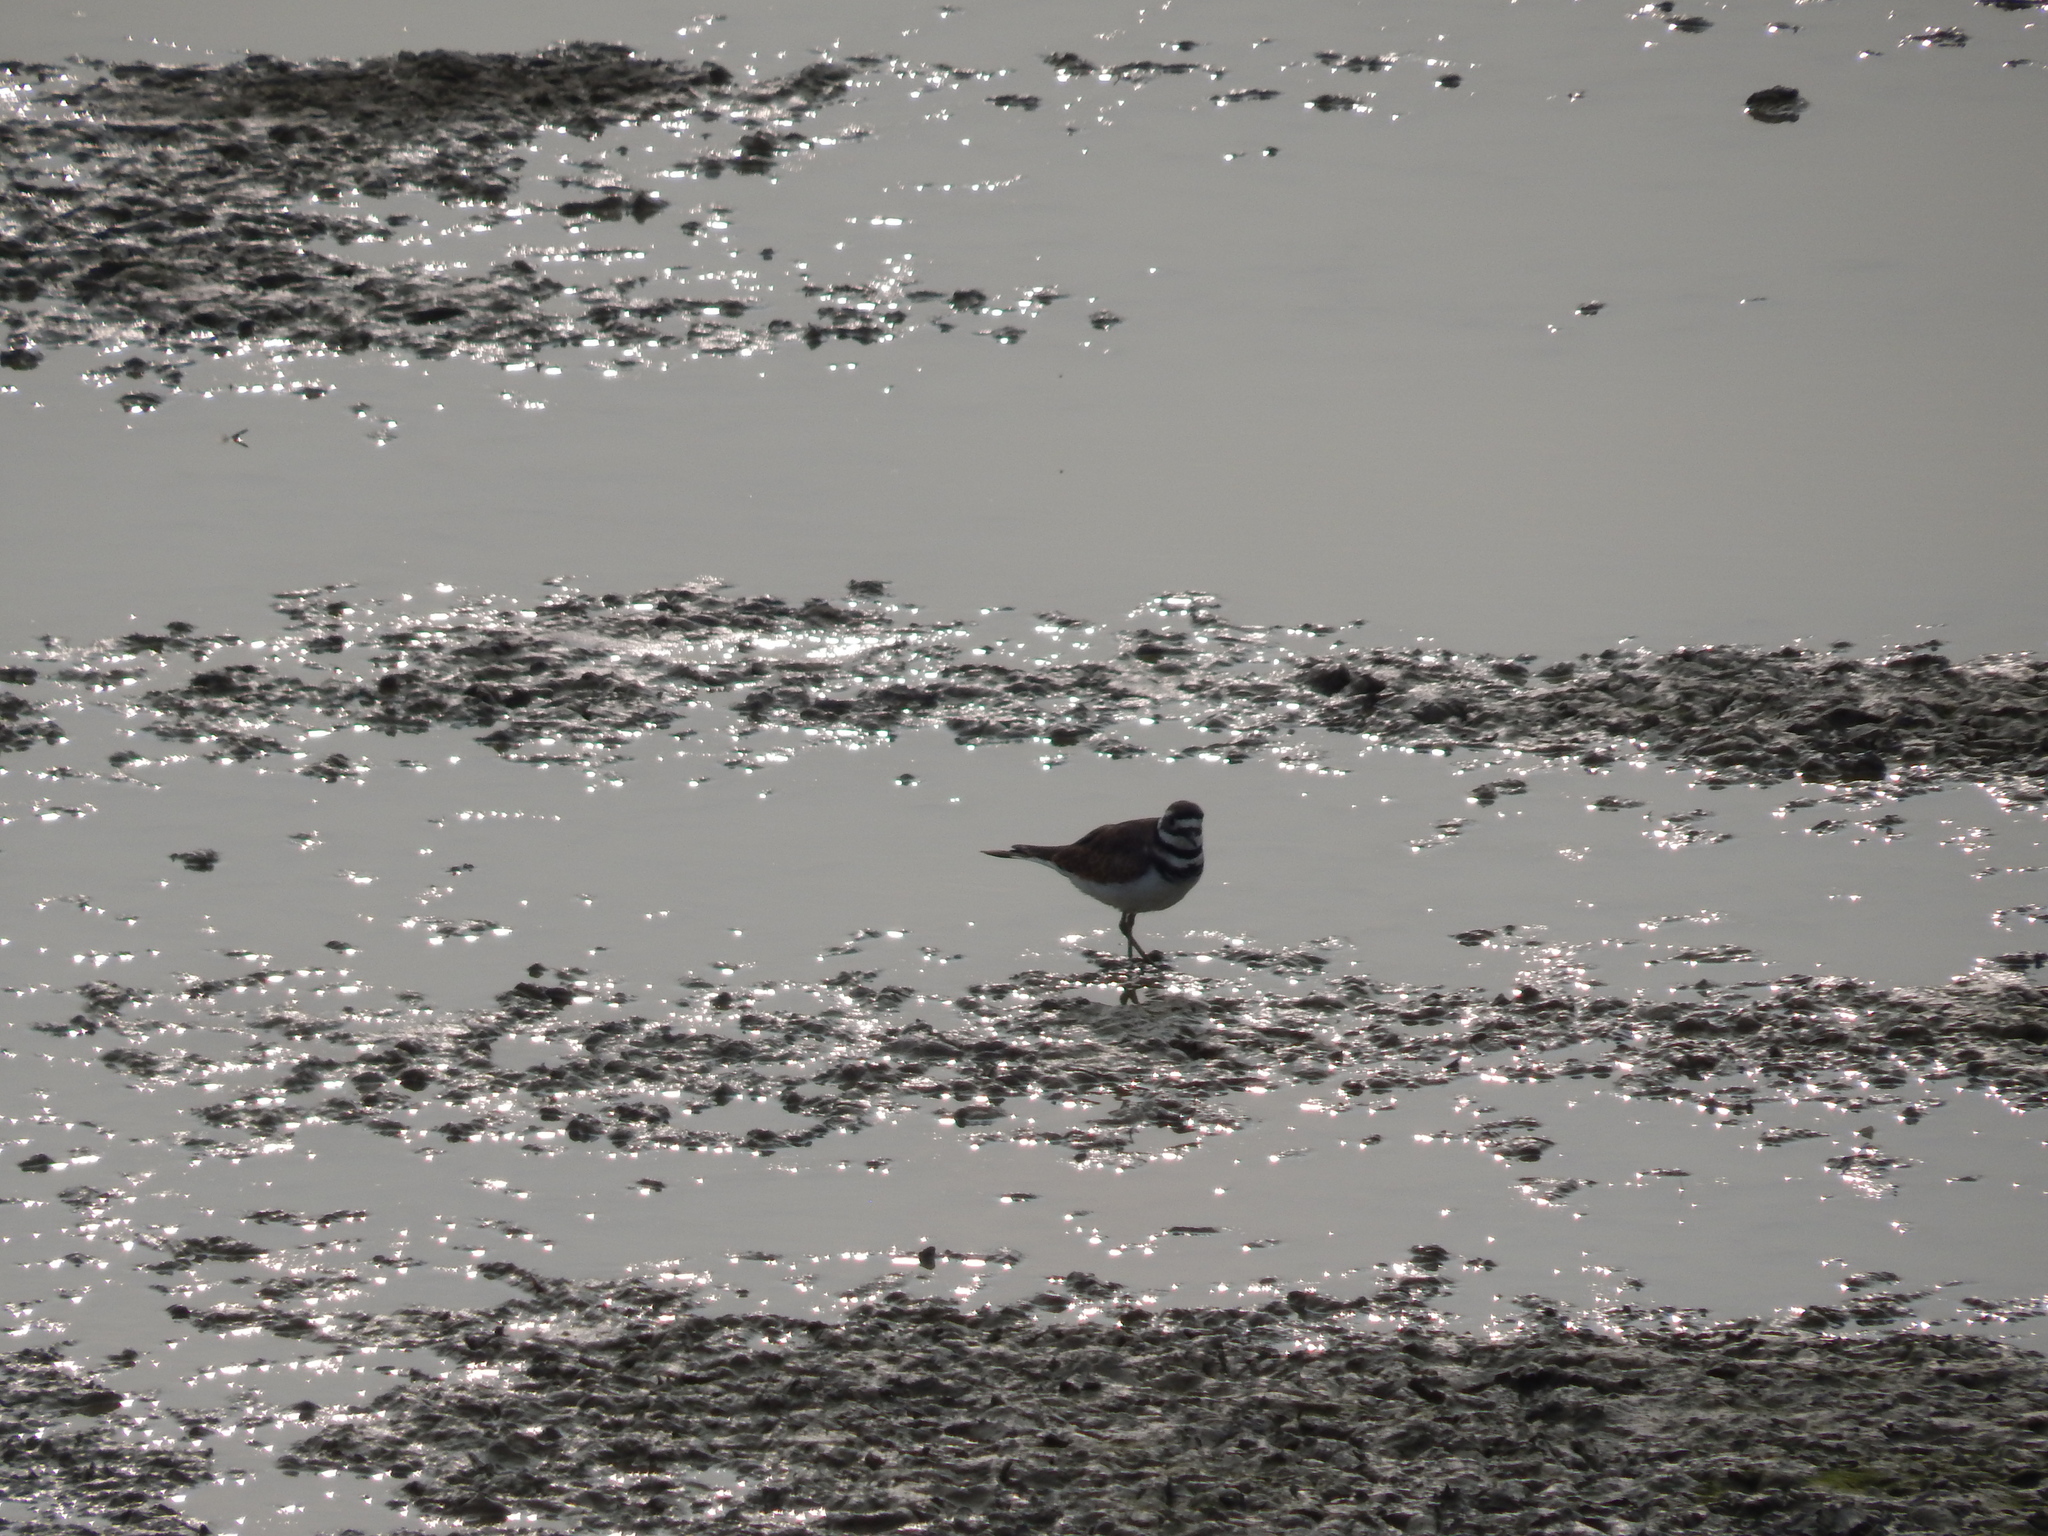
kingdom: Animalia
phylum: Chordata
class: Aves
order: Charadriiformes
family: Charadriidae
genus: Charadrius
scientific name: Charadrius vociferus
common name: Killdeer
